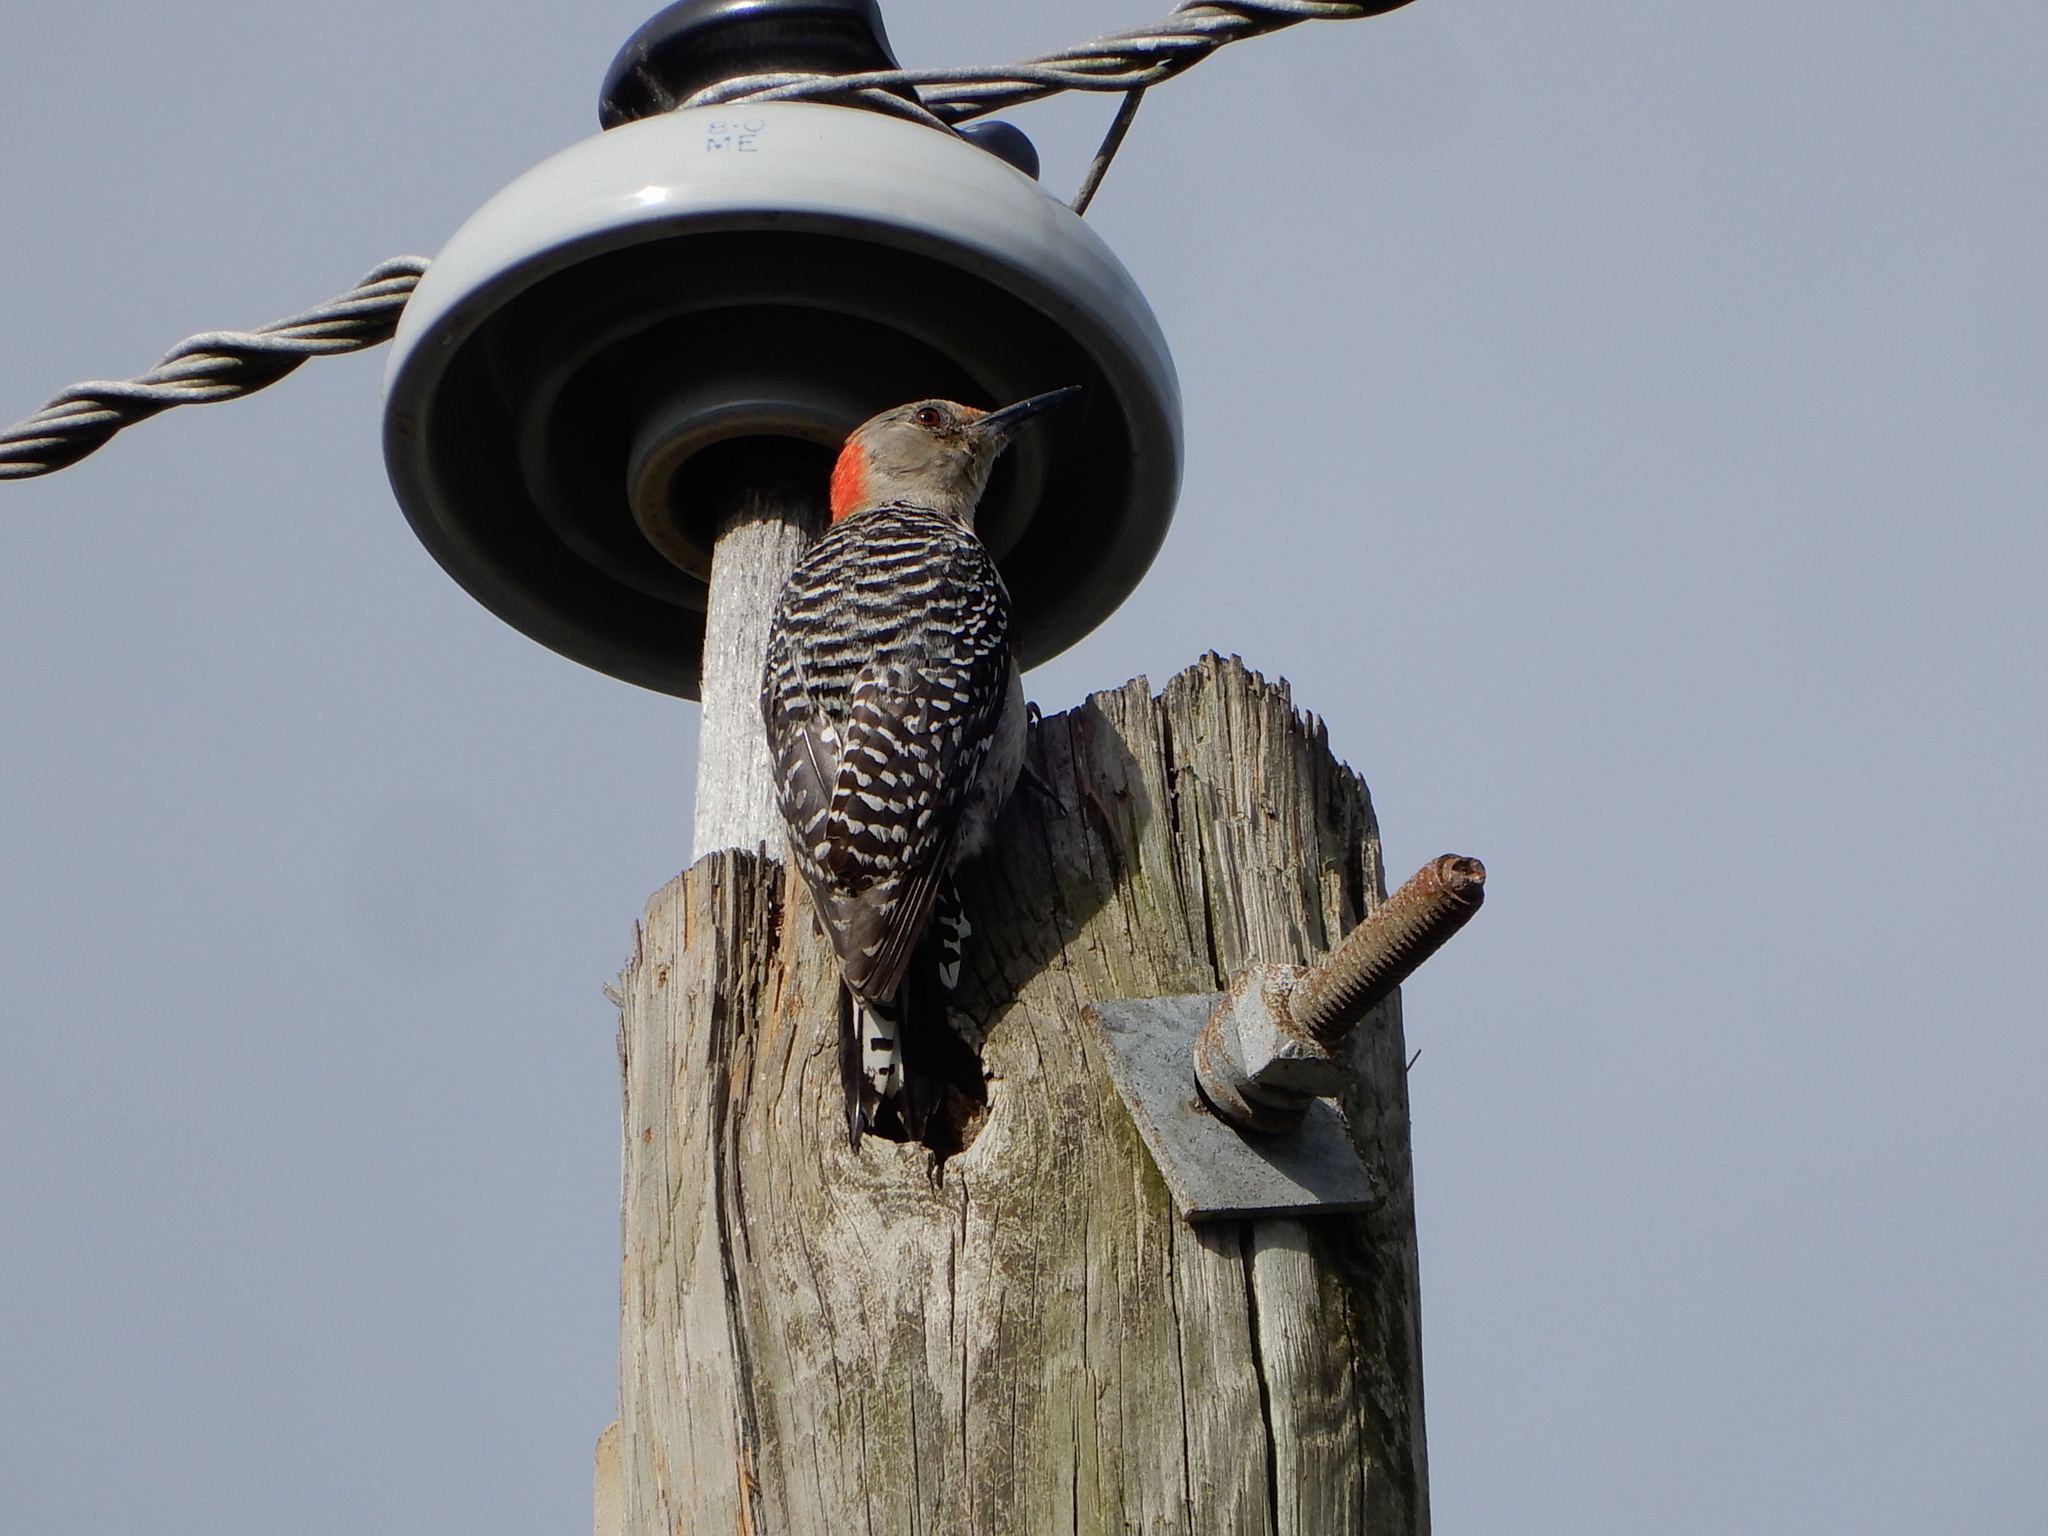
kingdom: Animalia
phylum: Chordata
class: Aves
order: Piciformes
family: Picidae
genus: Melanerpes
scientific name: Melanerpes carolinus
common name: Red-bellied woodpecker
